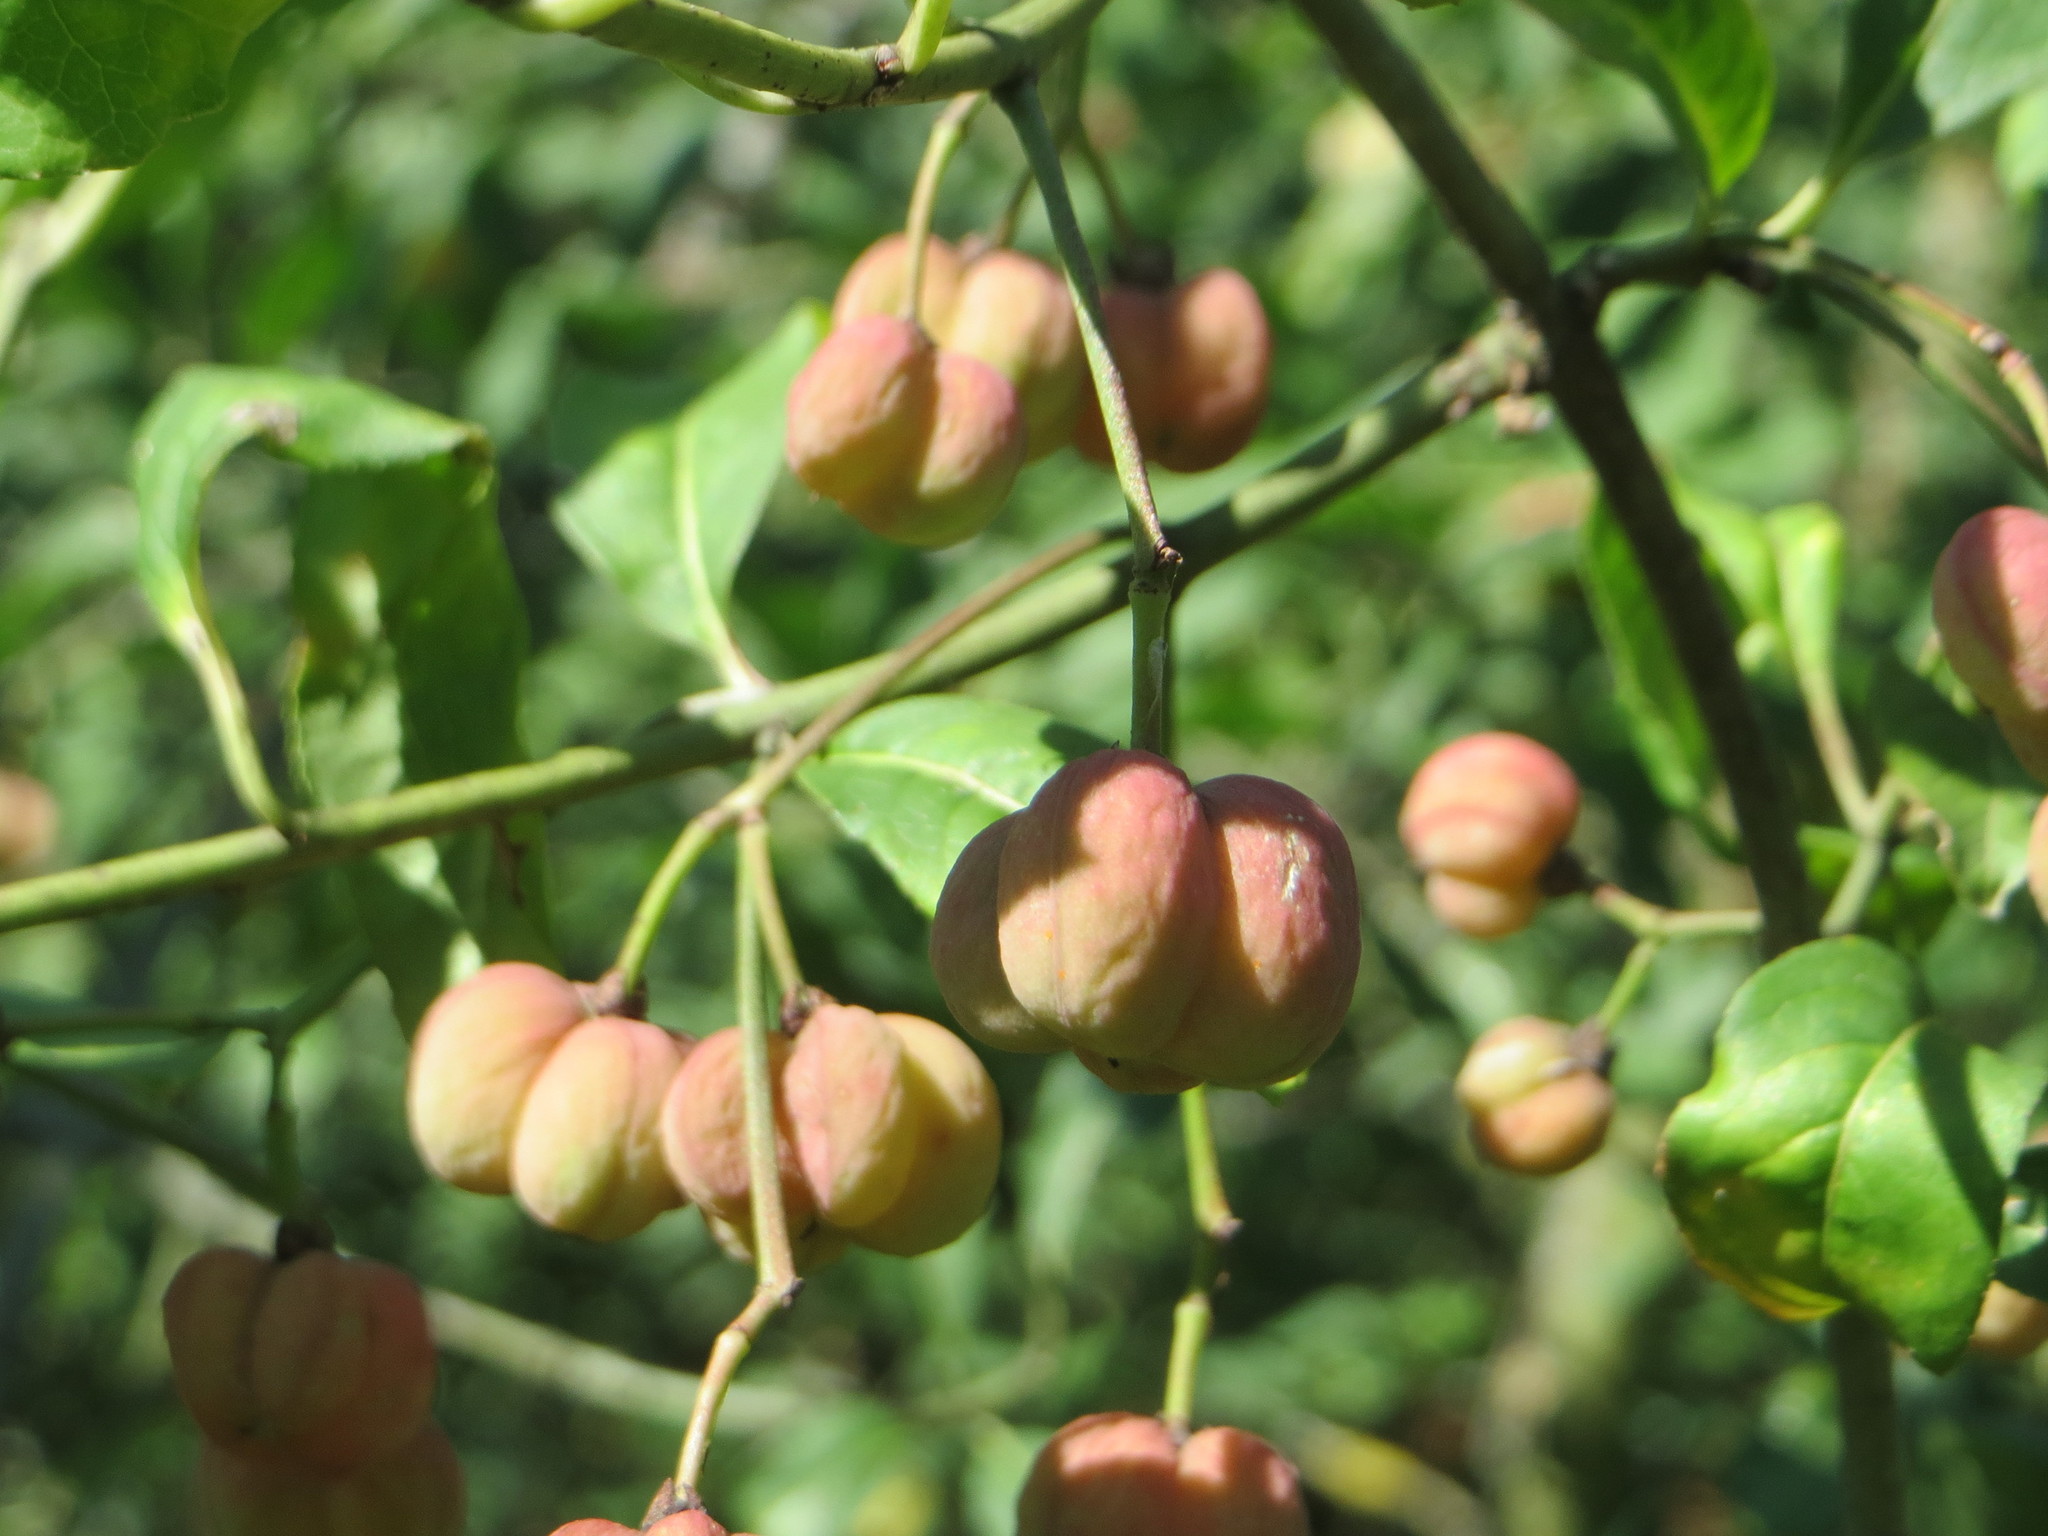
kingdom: Plantae
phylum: Tracheophyta
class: Magnoliopsida
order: Celastrales
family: Celastraceae
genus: Euonymus
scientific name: Euonymus europaeus
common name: Spindle
